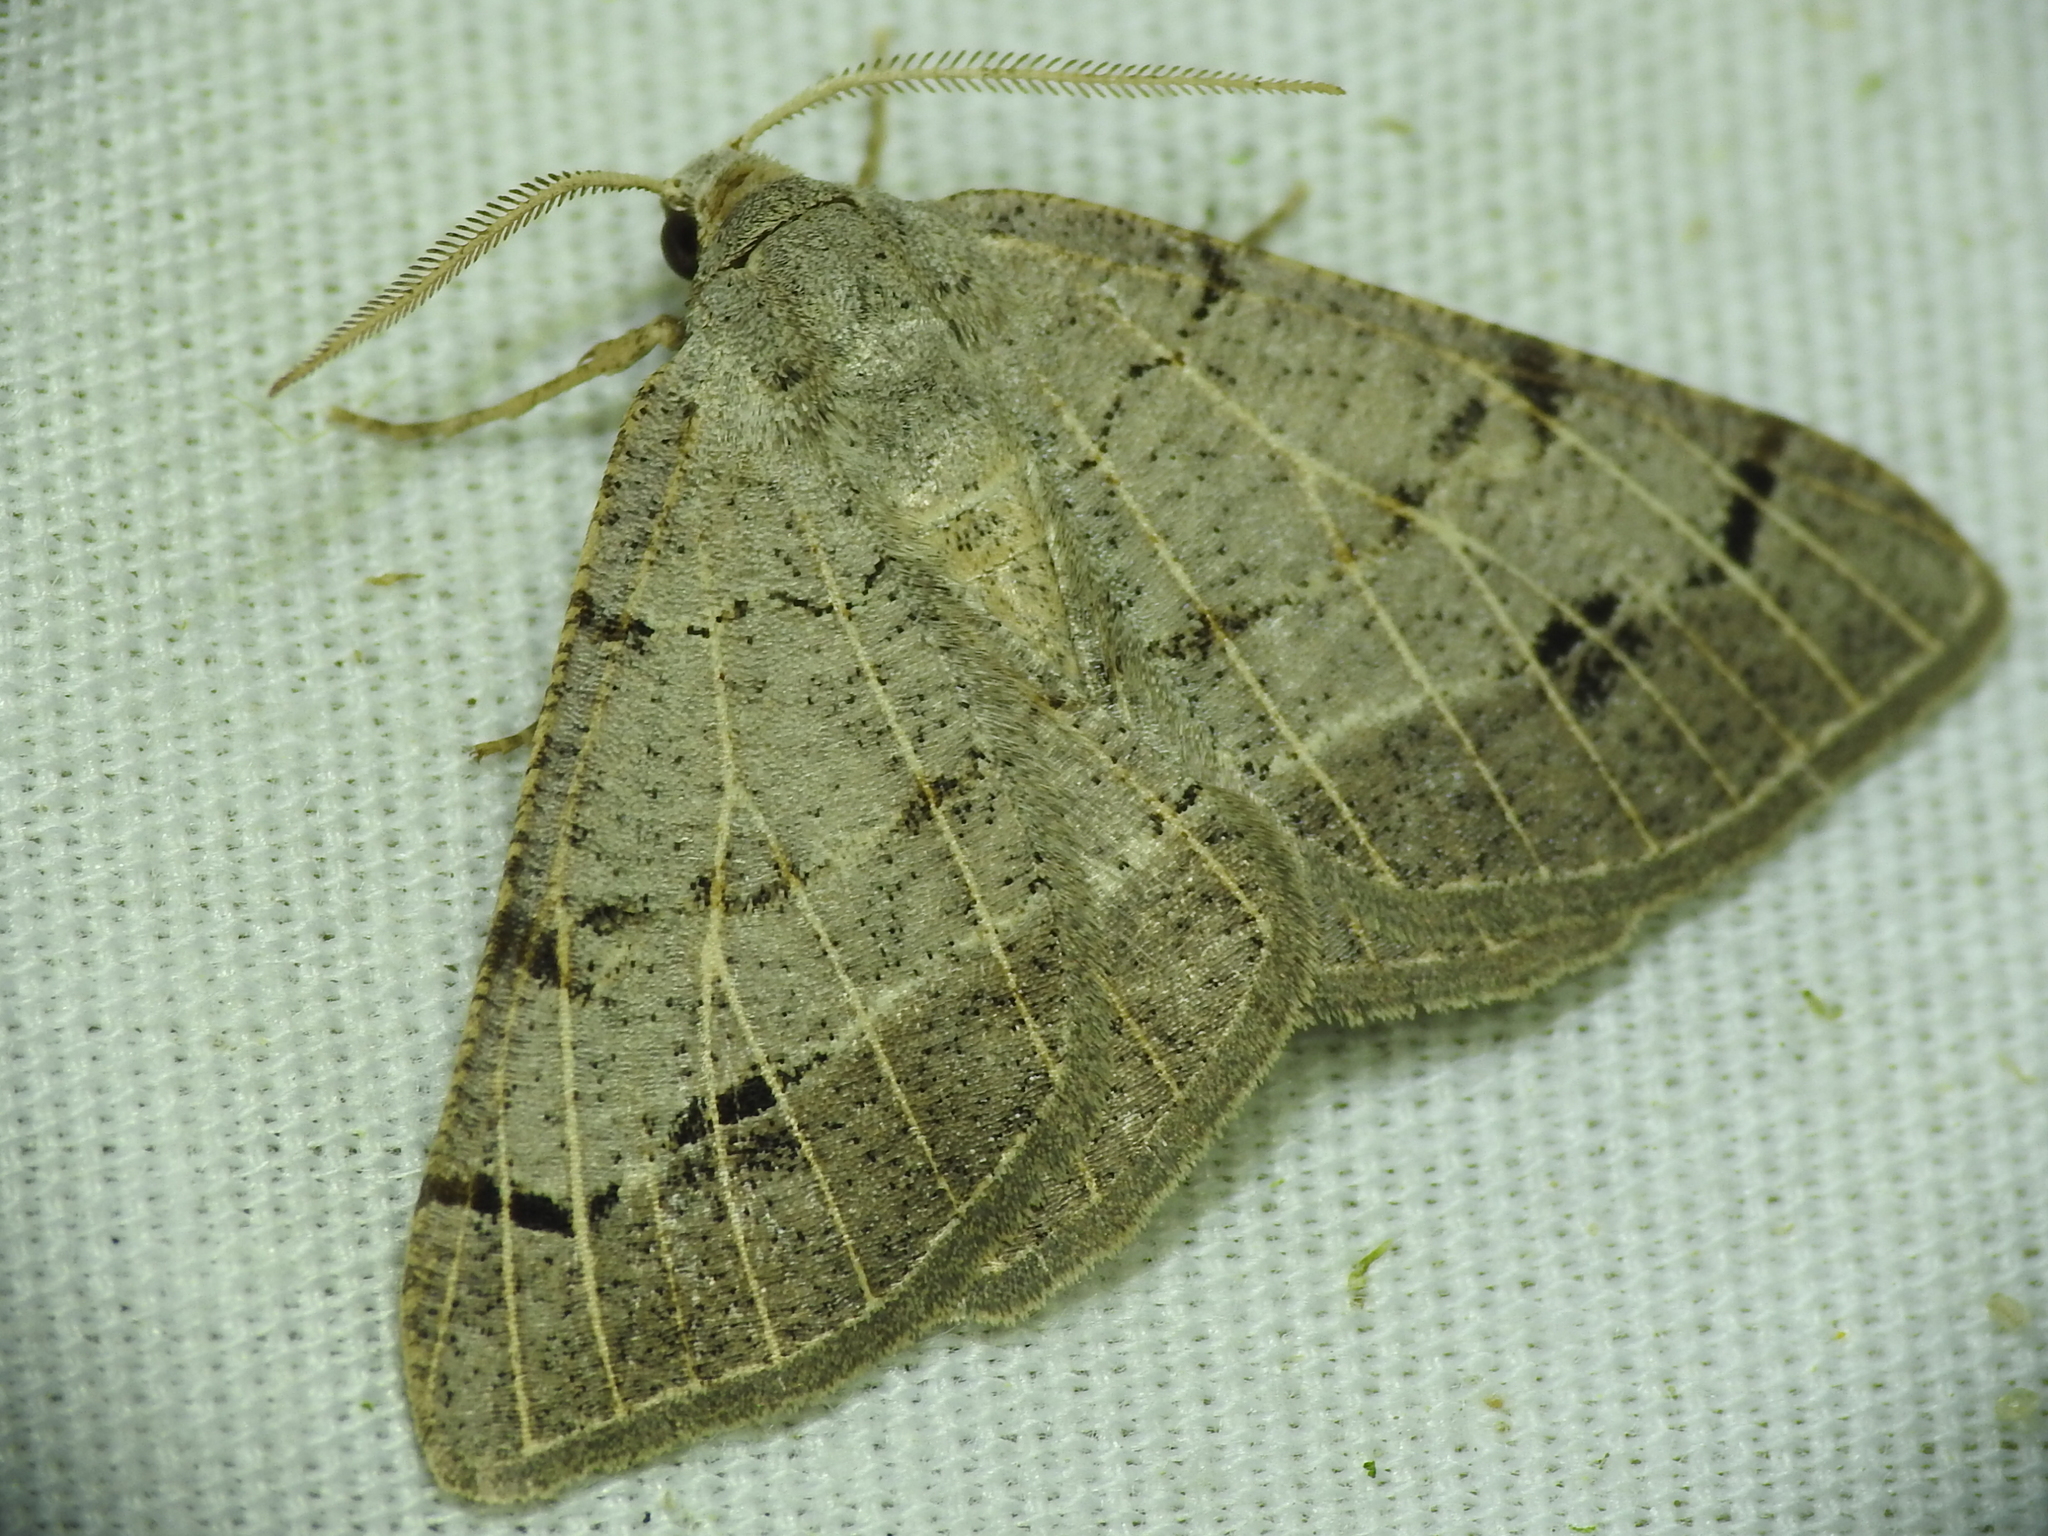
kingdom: Animalia
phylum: Arthropoda
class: Insecta
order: Lepidoptera
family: Geometridae
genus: Isturgia
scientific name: Isturgia dislocaria
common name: Pale-viened enconista
